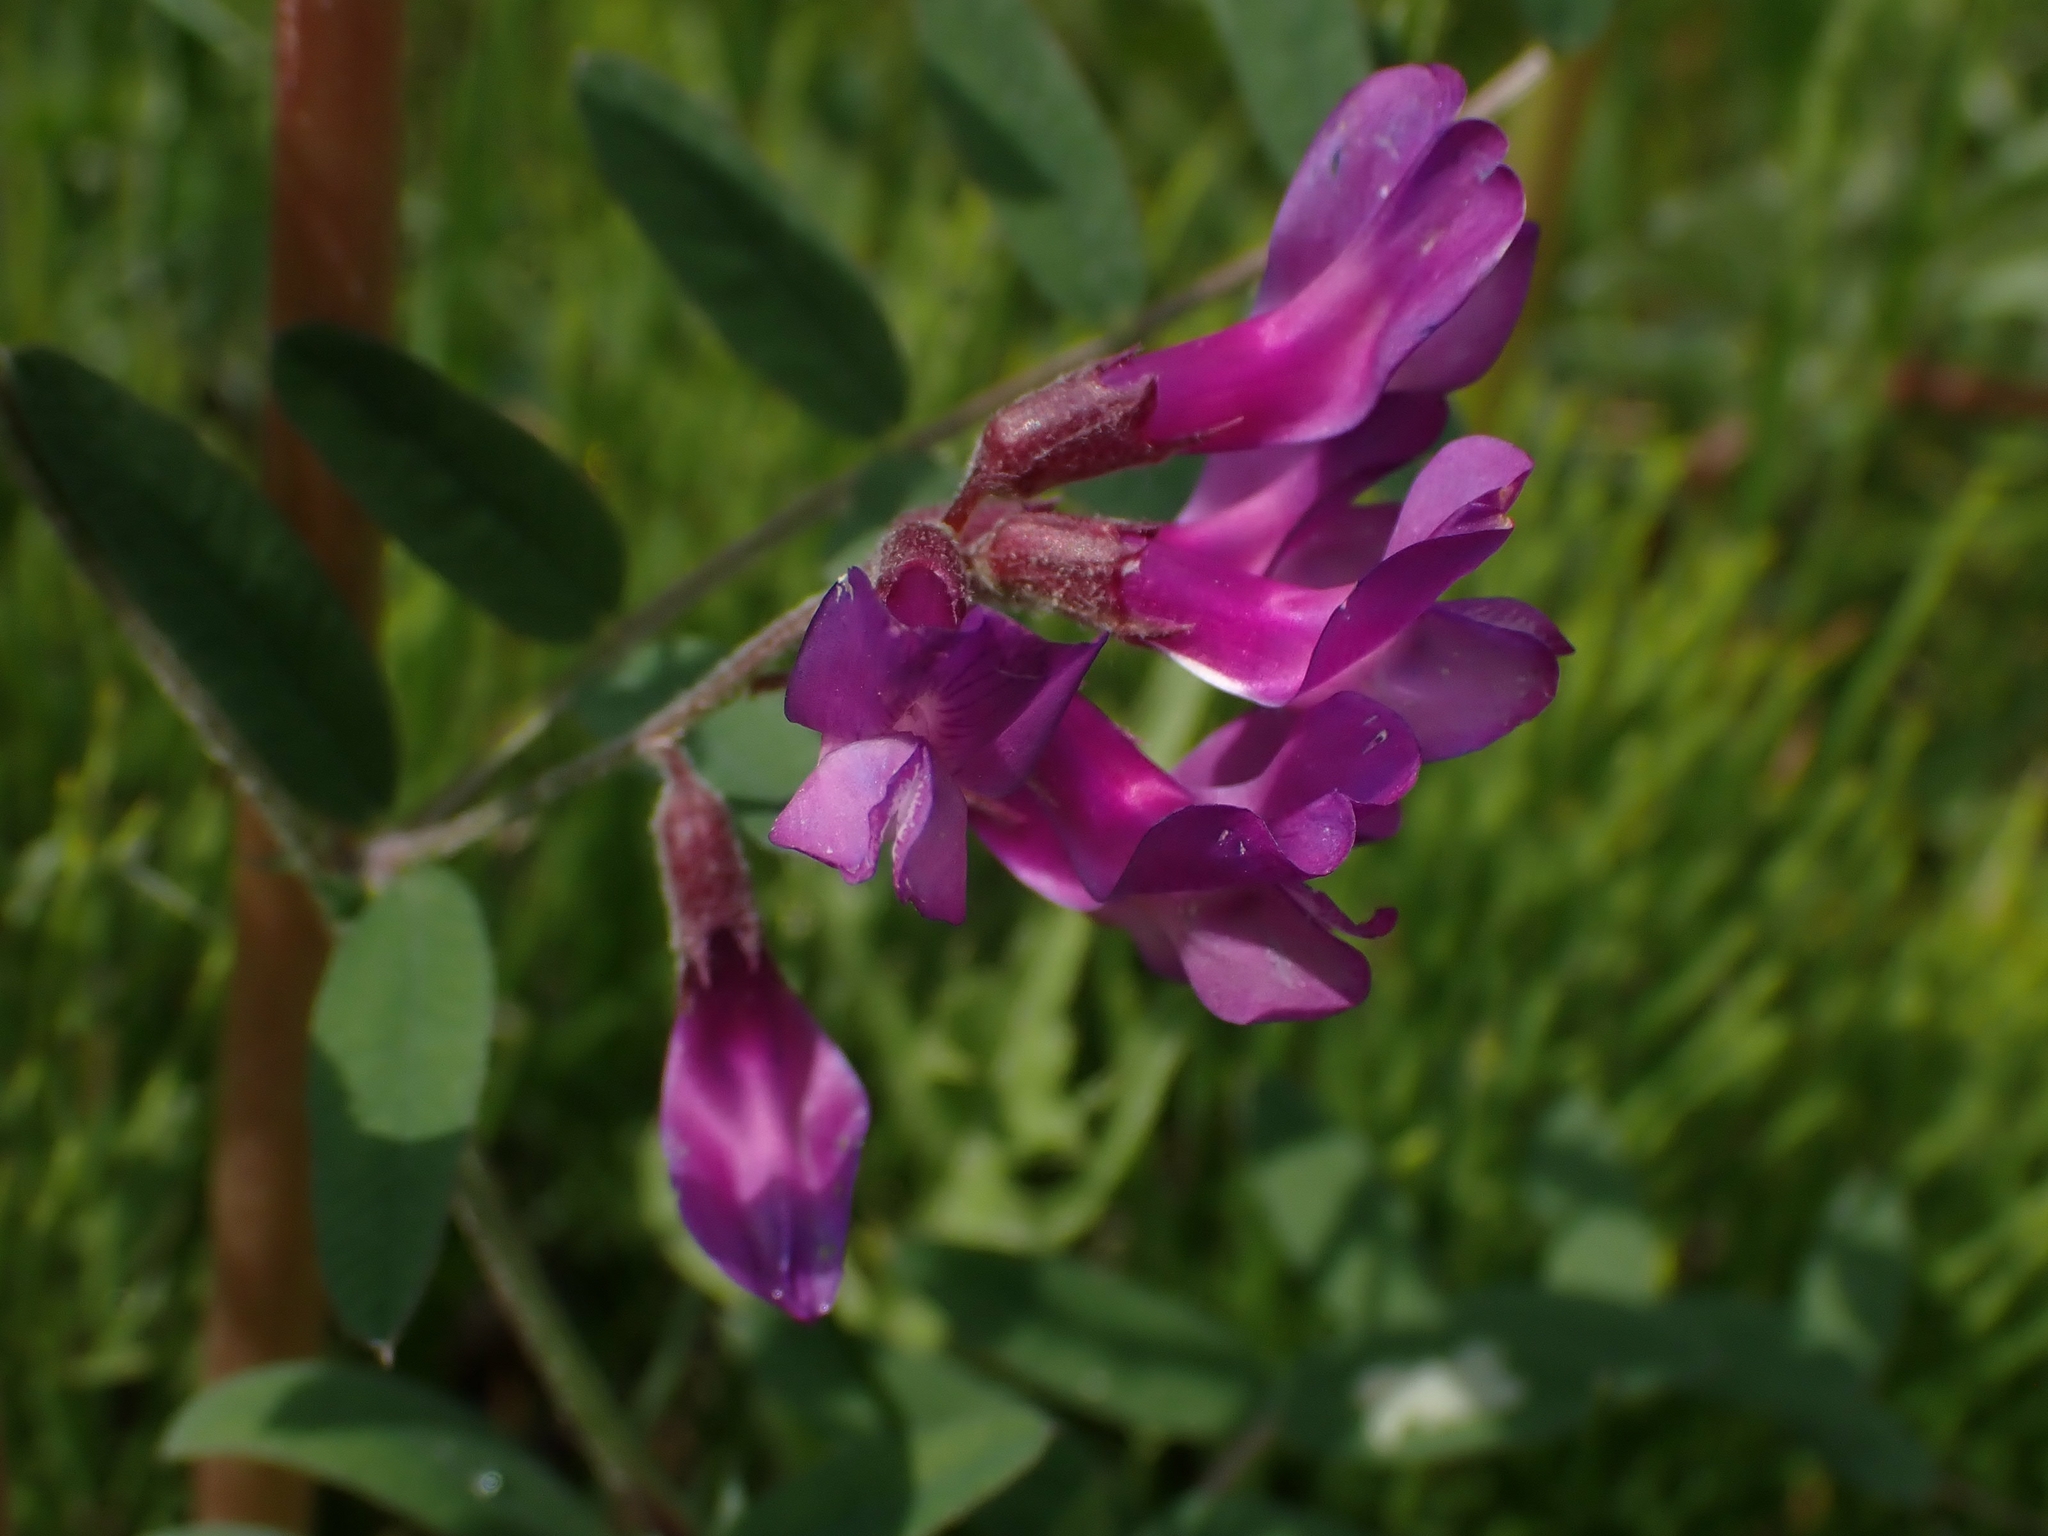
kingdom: Plantae
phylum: Tracheophyta
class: Magnoliopsida
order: Fabales
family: Fabaceae
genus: Vicia
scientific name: Vicia americana
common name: American vetch
